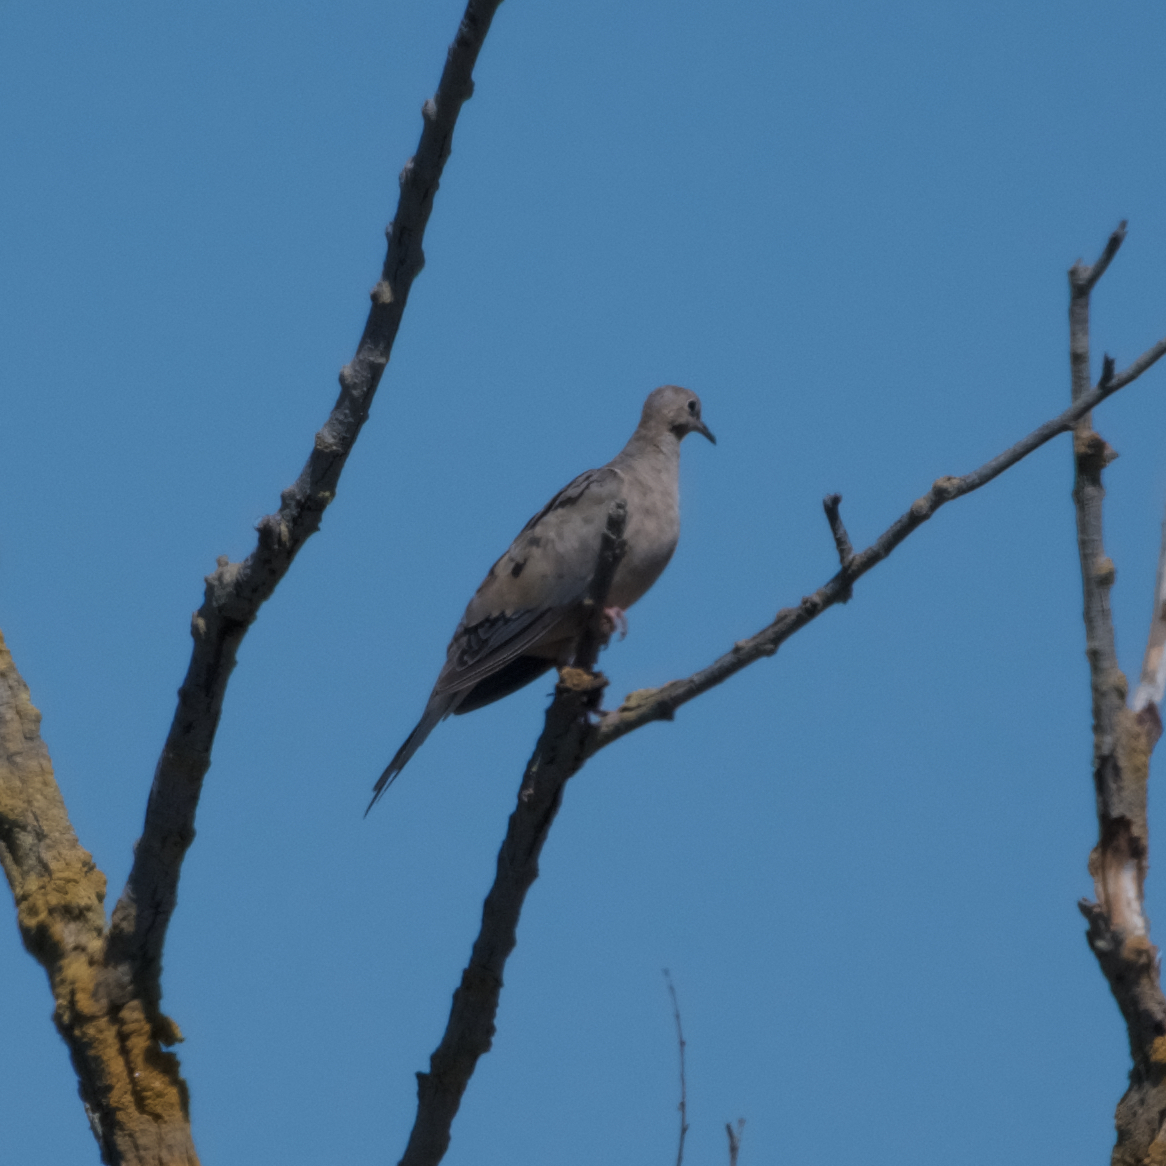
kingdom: Animalia
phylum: Chordata
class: Aves
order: Columbiformes
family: Columbidae
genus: Zenaida
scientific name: Zenaida macroura
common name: Mourning dove
